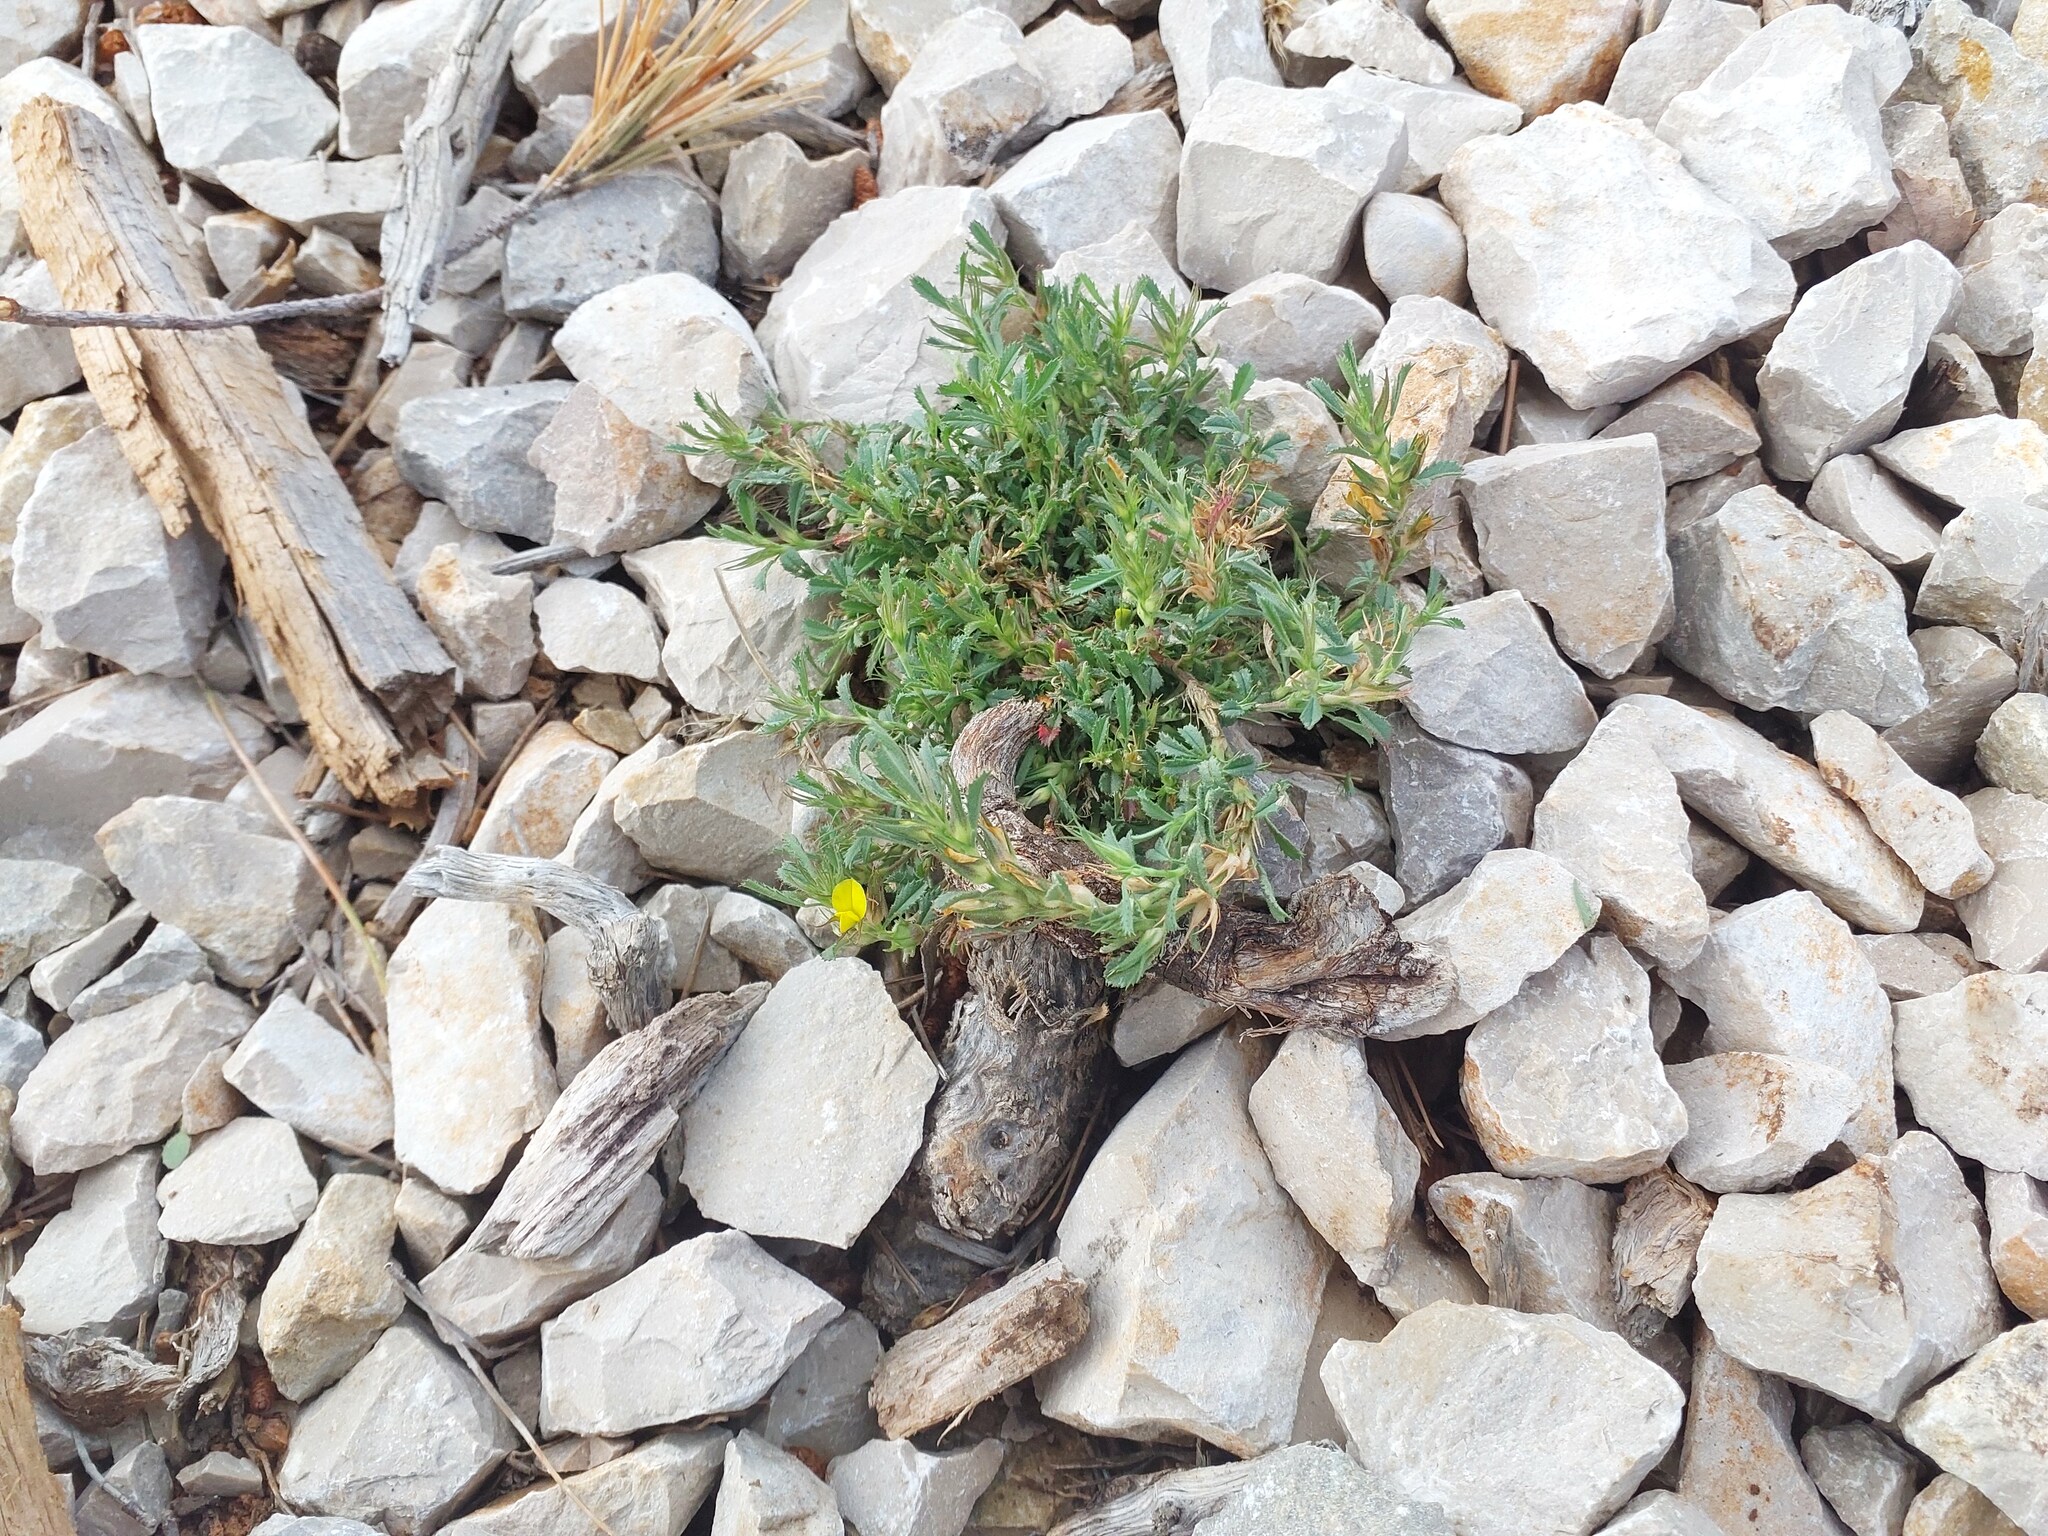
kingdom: Plantae
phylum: Tracheophyta
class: Magnoliopsida
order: Fabales
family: Fabaceae
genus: Ononis
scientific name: Ononis minutissima
